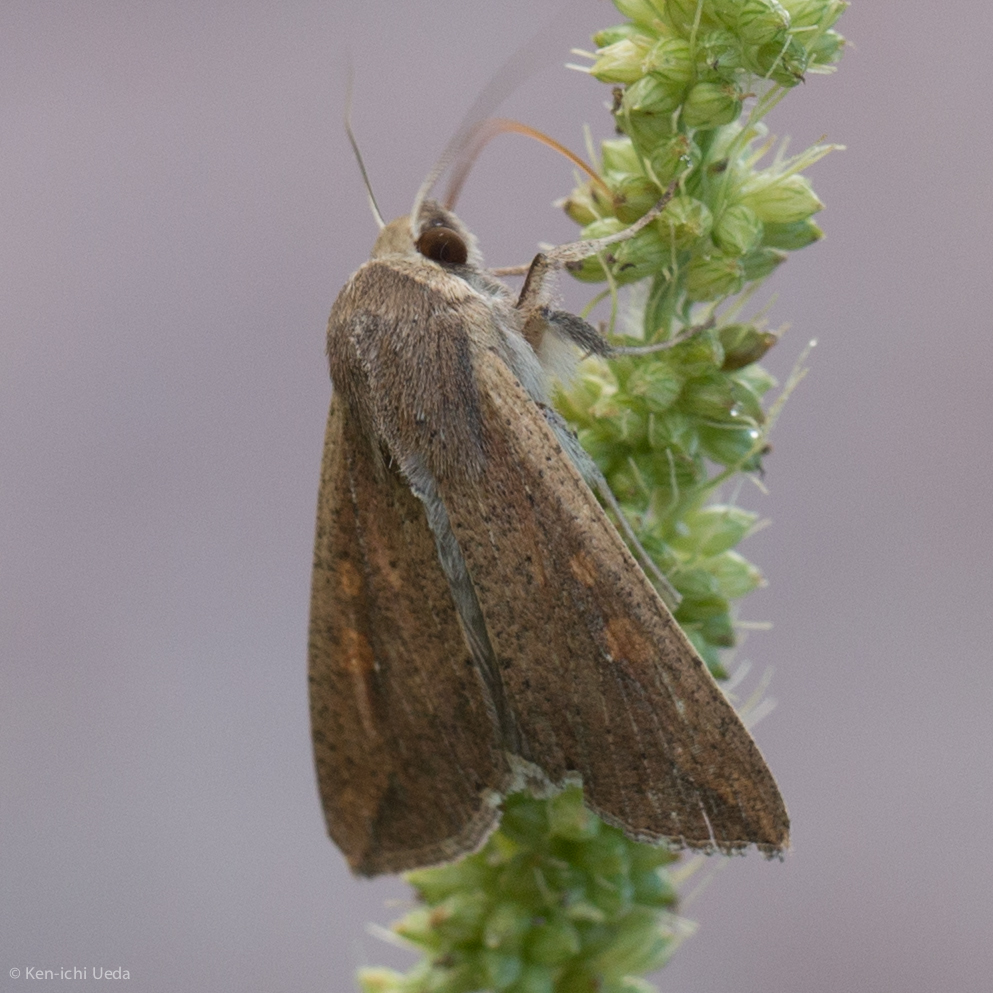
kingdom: Animalia
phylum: Arthropoda
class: Insecta
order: Lepidoptera
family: Noctuidae
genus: Mythimna
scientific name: Mythimna unipuncta
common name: White-speck
